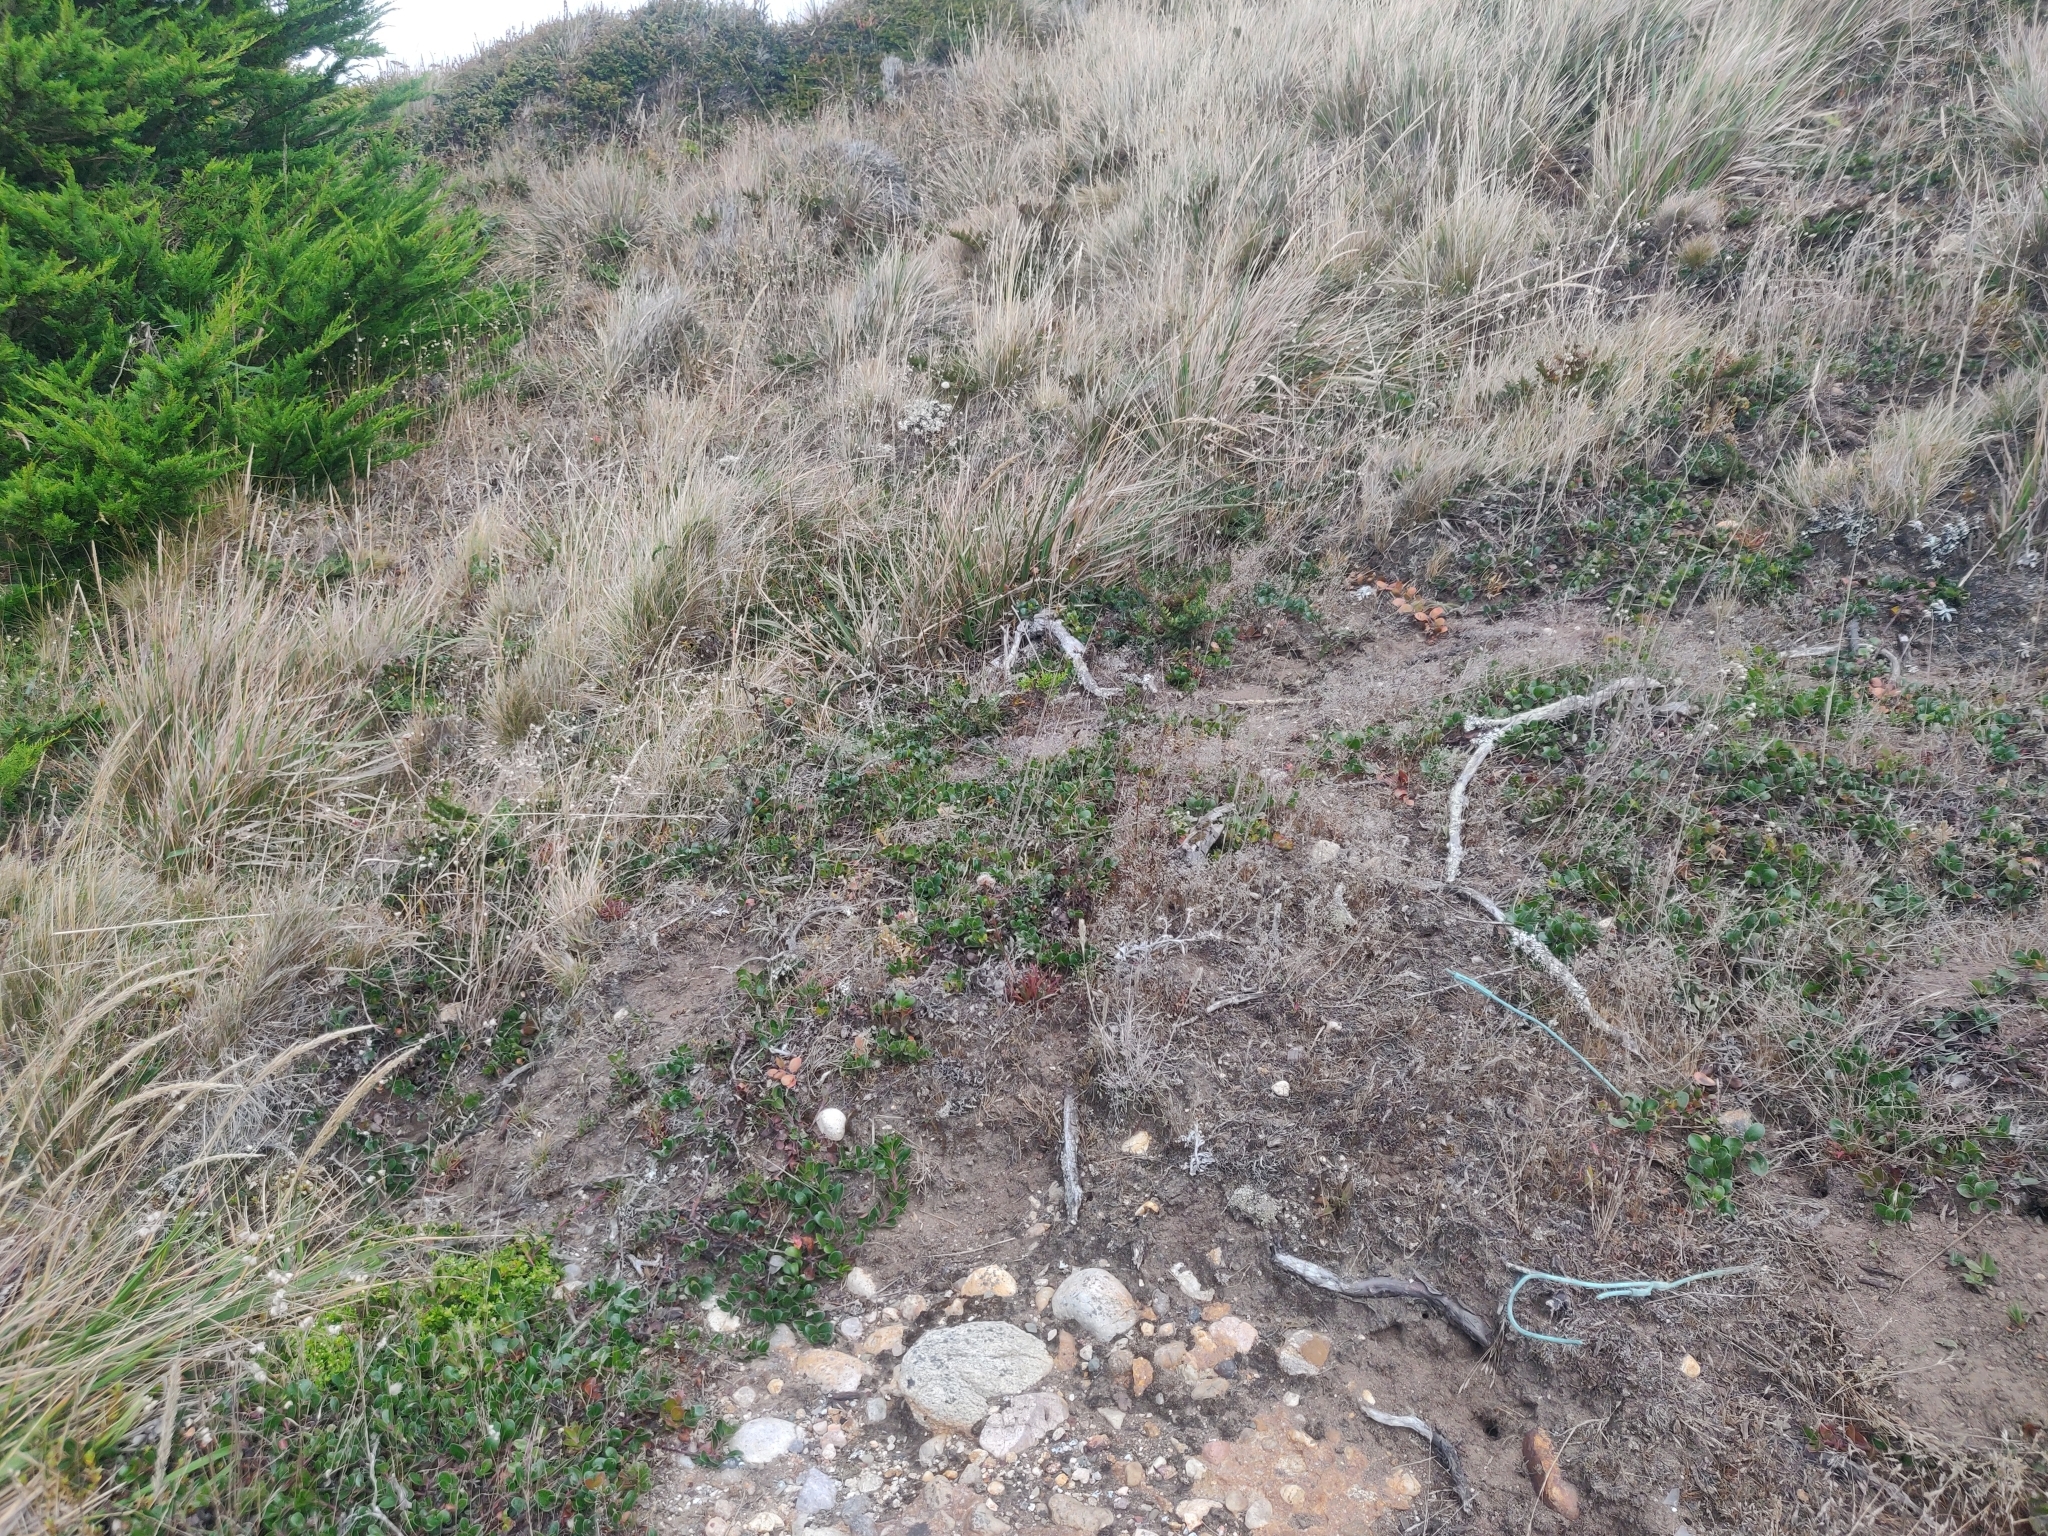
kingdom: Plantae
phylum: Tracheophyta
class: Magnoliopsida
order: Ericales
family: Ericaceae
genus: Arctostaphylos
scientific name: Arctostaphylos uva-ursi
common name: Bearberry
